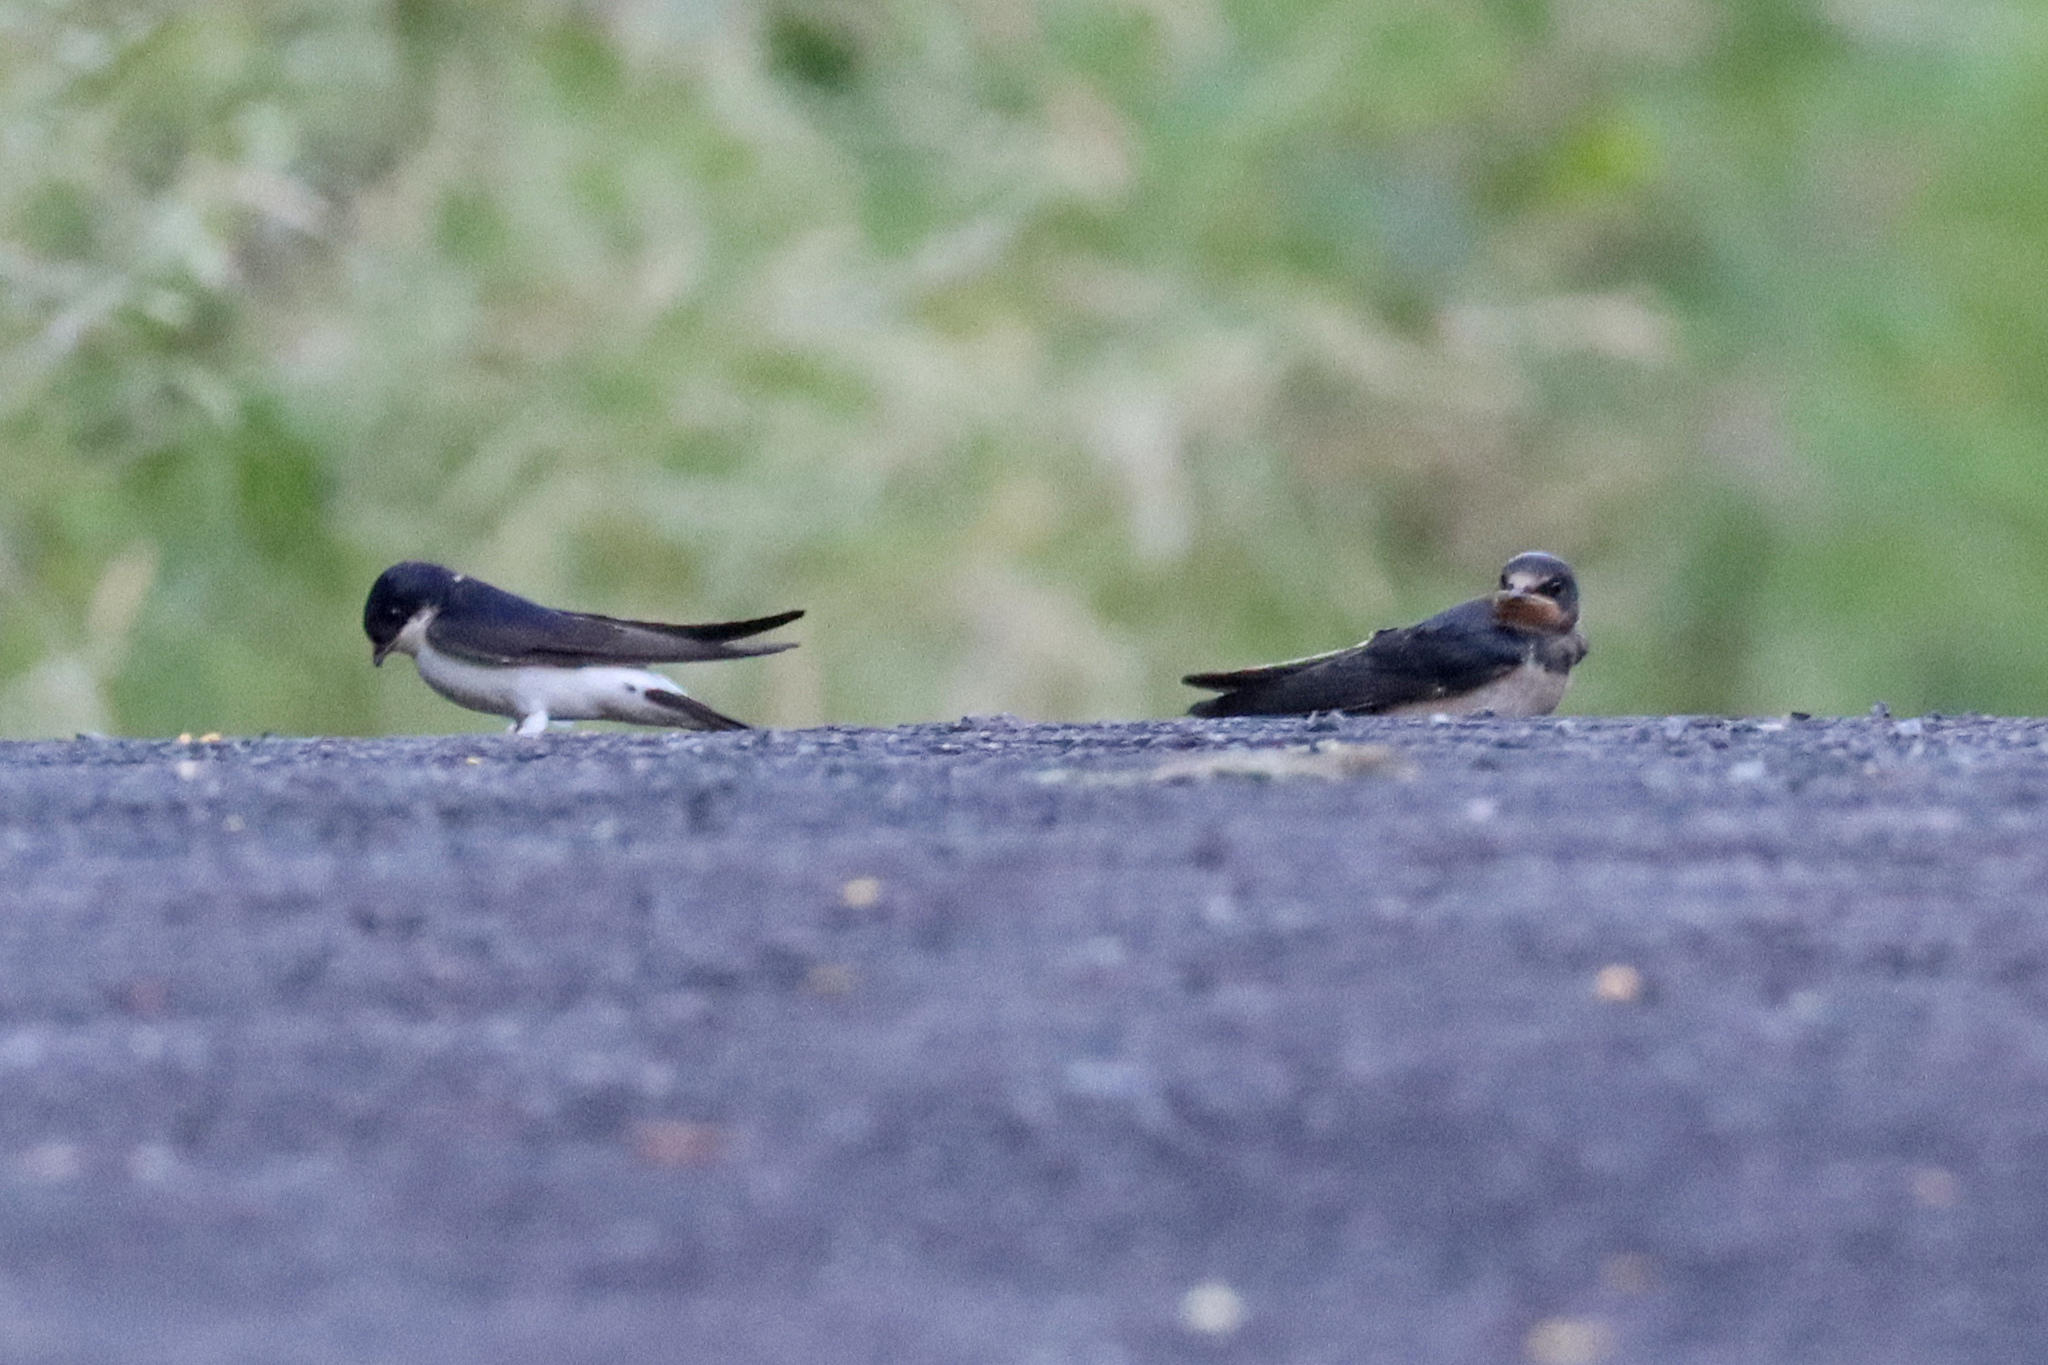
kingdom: Animalia
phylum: Chordata
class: Aves
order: Passeriformes
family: Hirundinidae
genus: Delichon
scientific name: Delichon urbicum
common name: Common house martin
